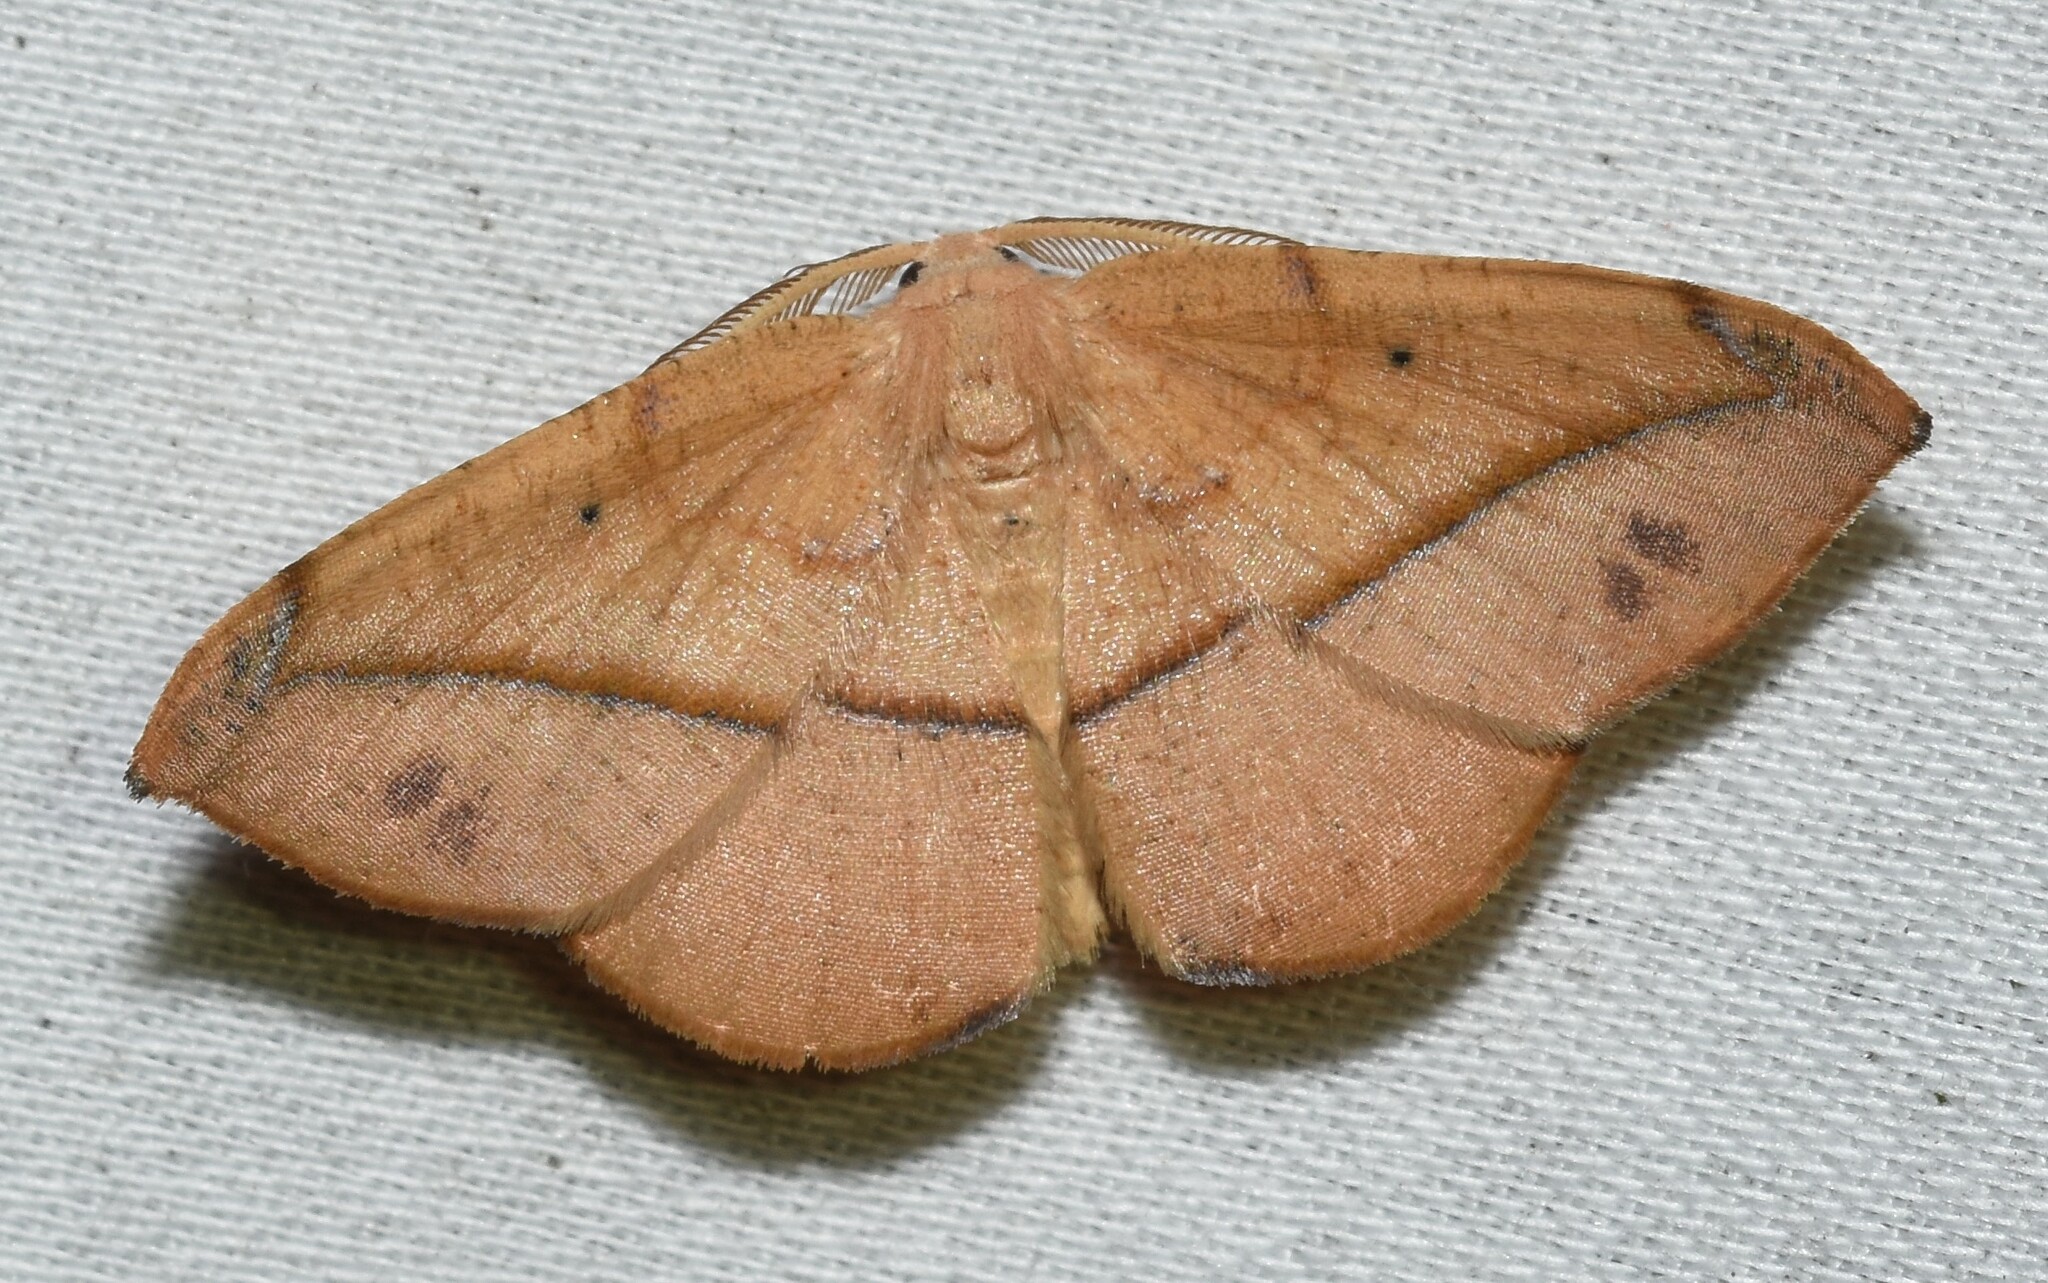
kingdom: Animalia
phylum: Arthropoda
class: Insecta
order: Lepidoptera
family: Geometridae
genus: Patalene
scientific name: Patalene olyzonaria
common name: Juniper geometer moth
